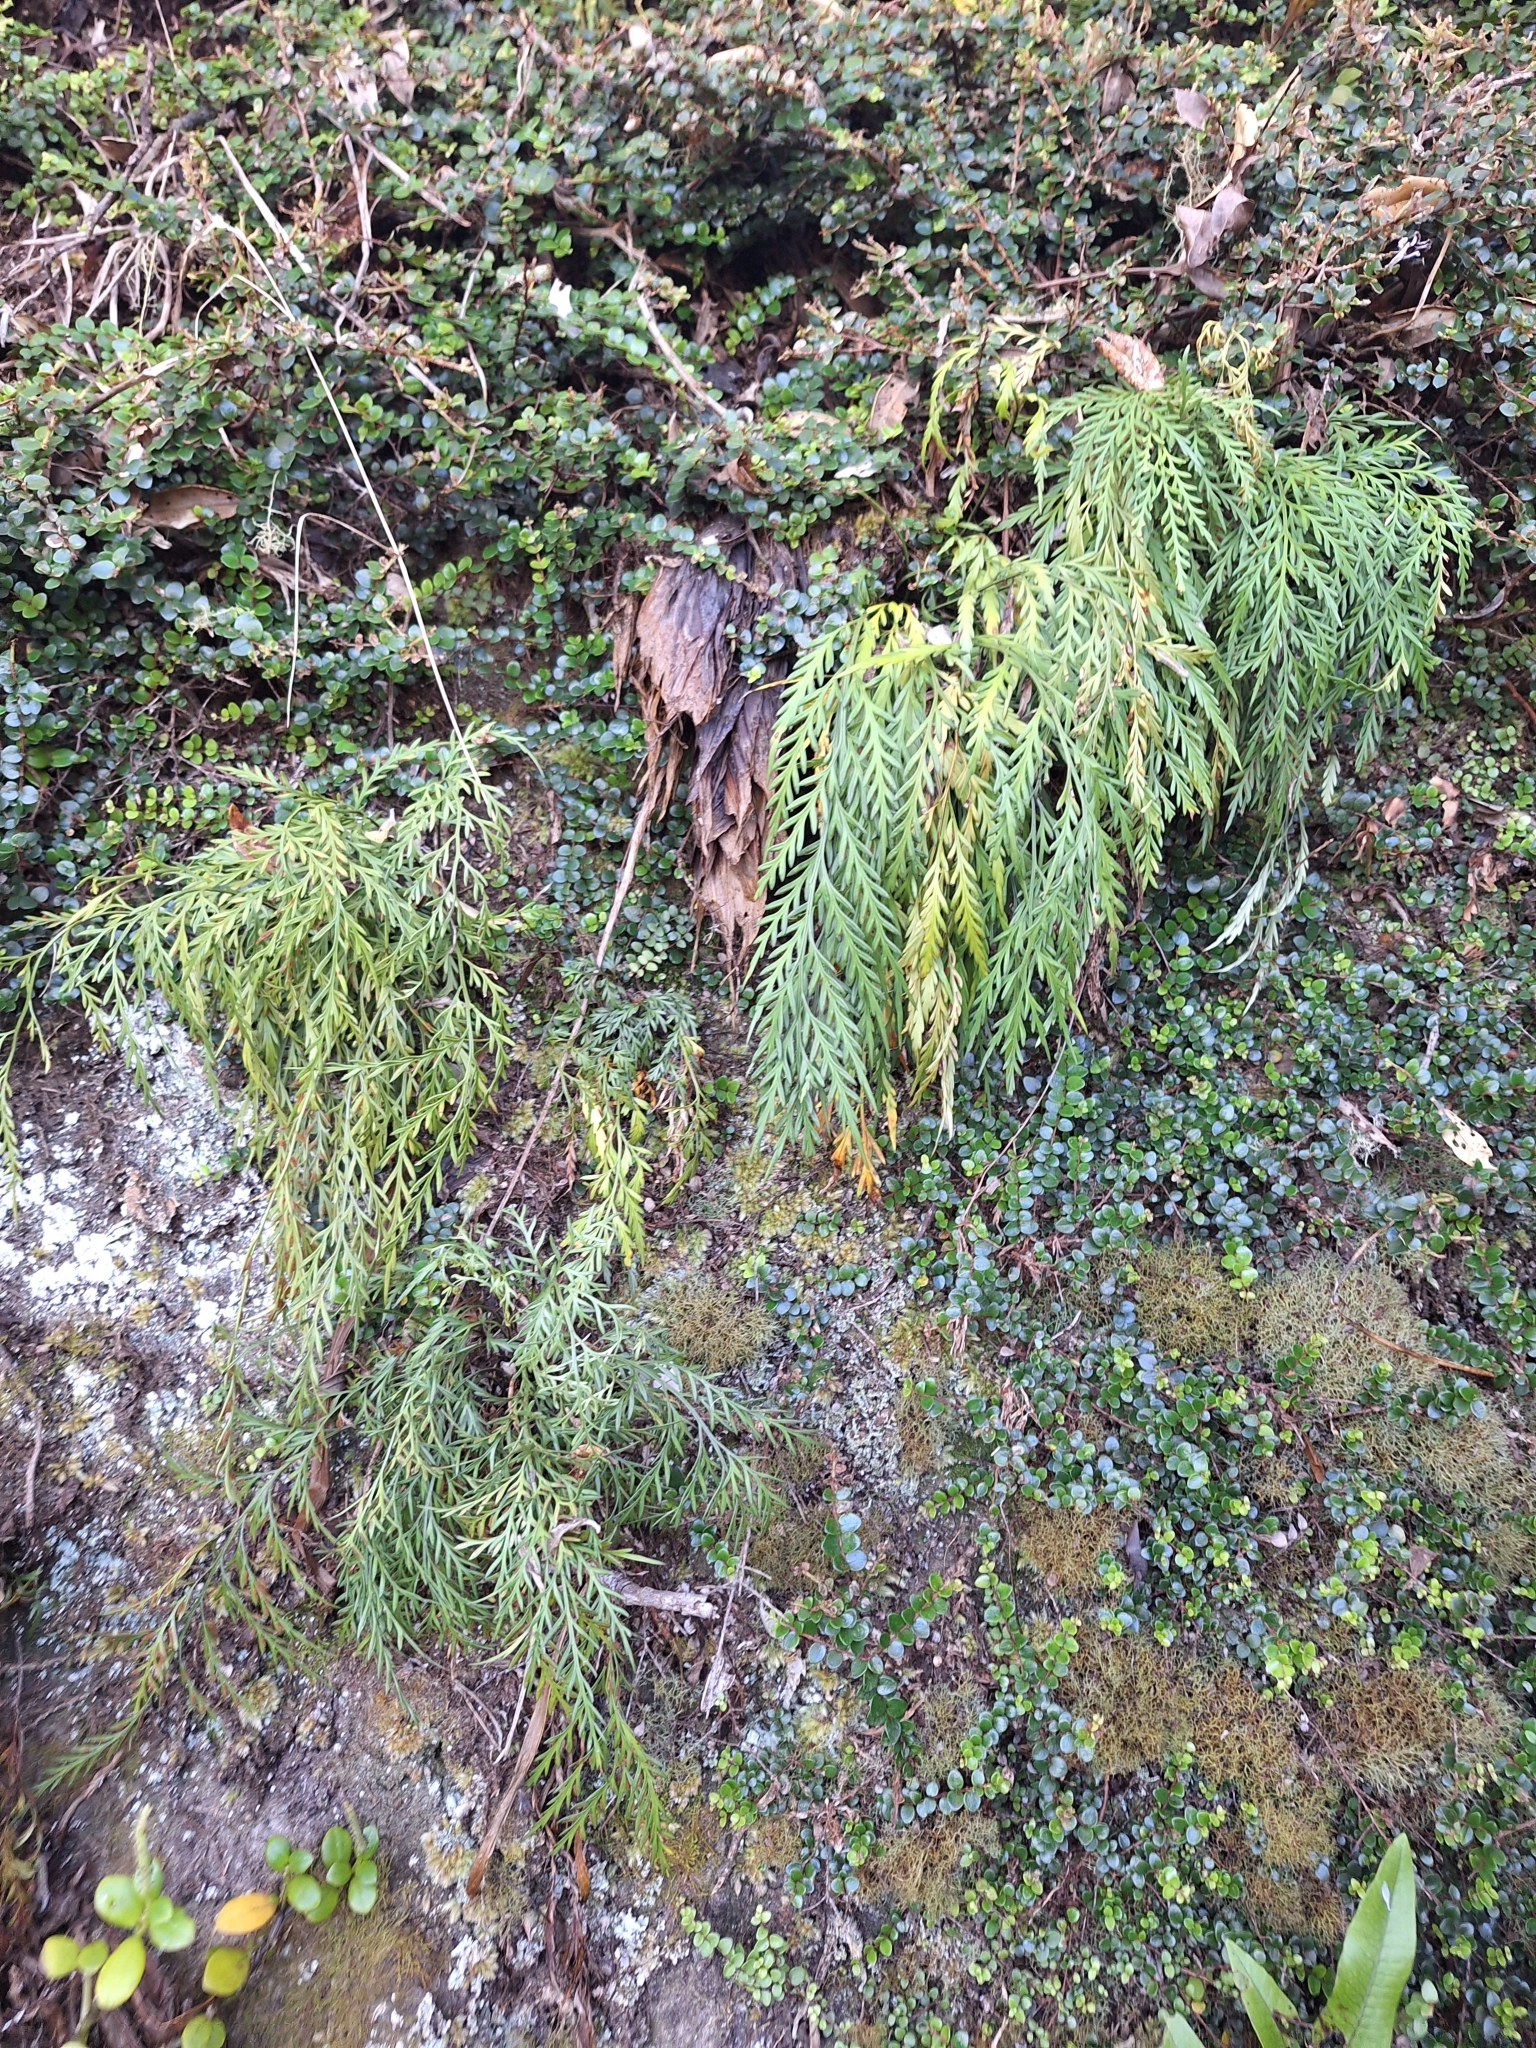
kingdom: Plantae
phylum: Tracheophyta
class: Polypodiopsida
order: Polypodiales
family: Aspleniaceae
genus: Asplenium
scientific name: Asplenium haurakiense
